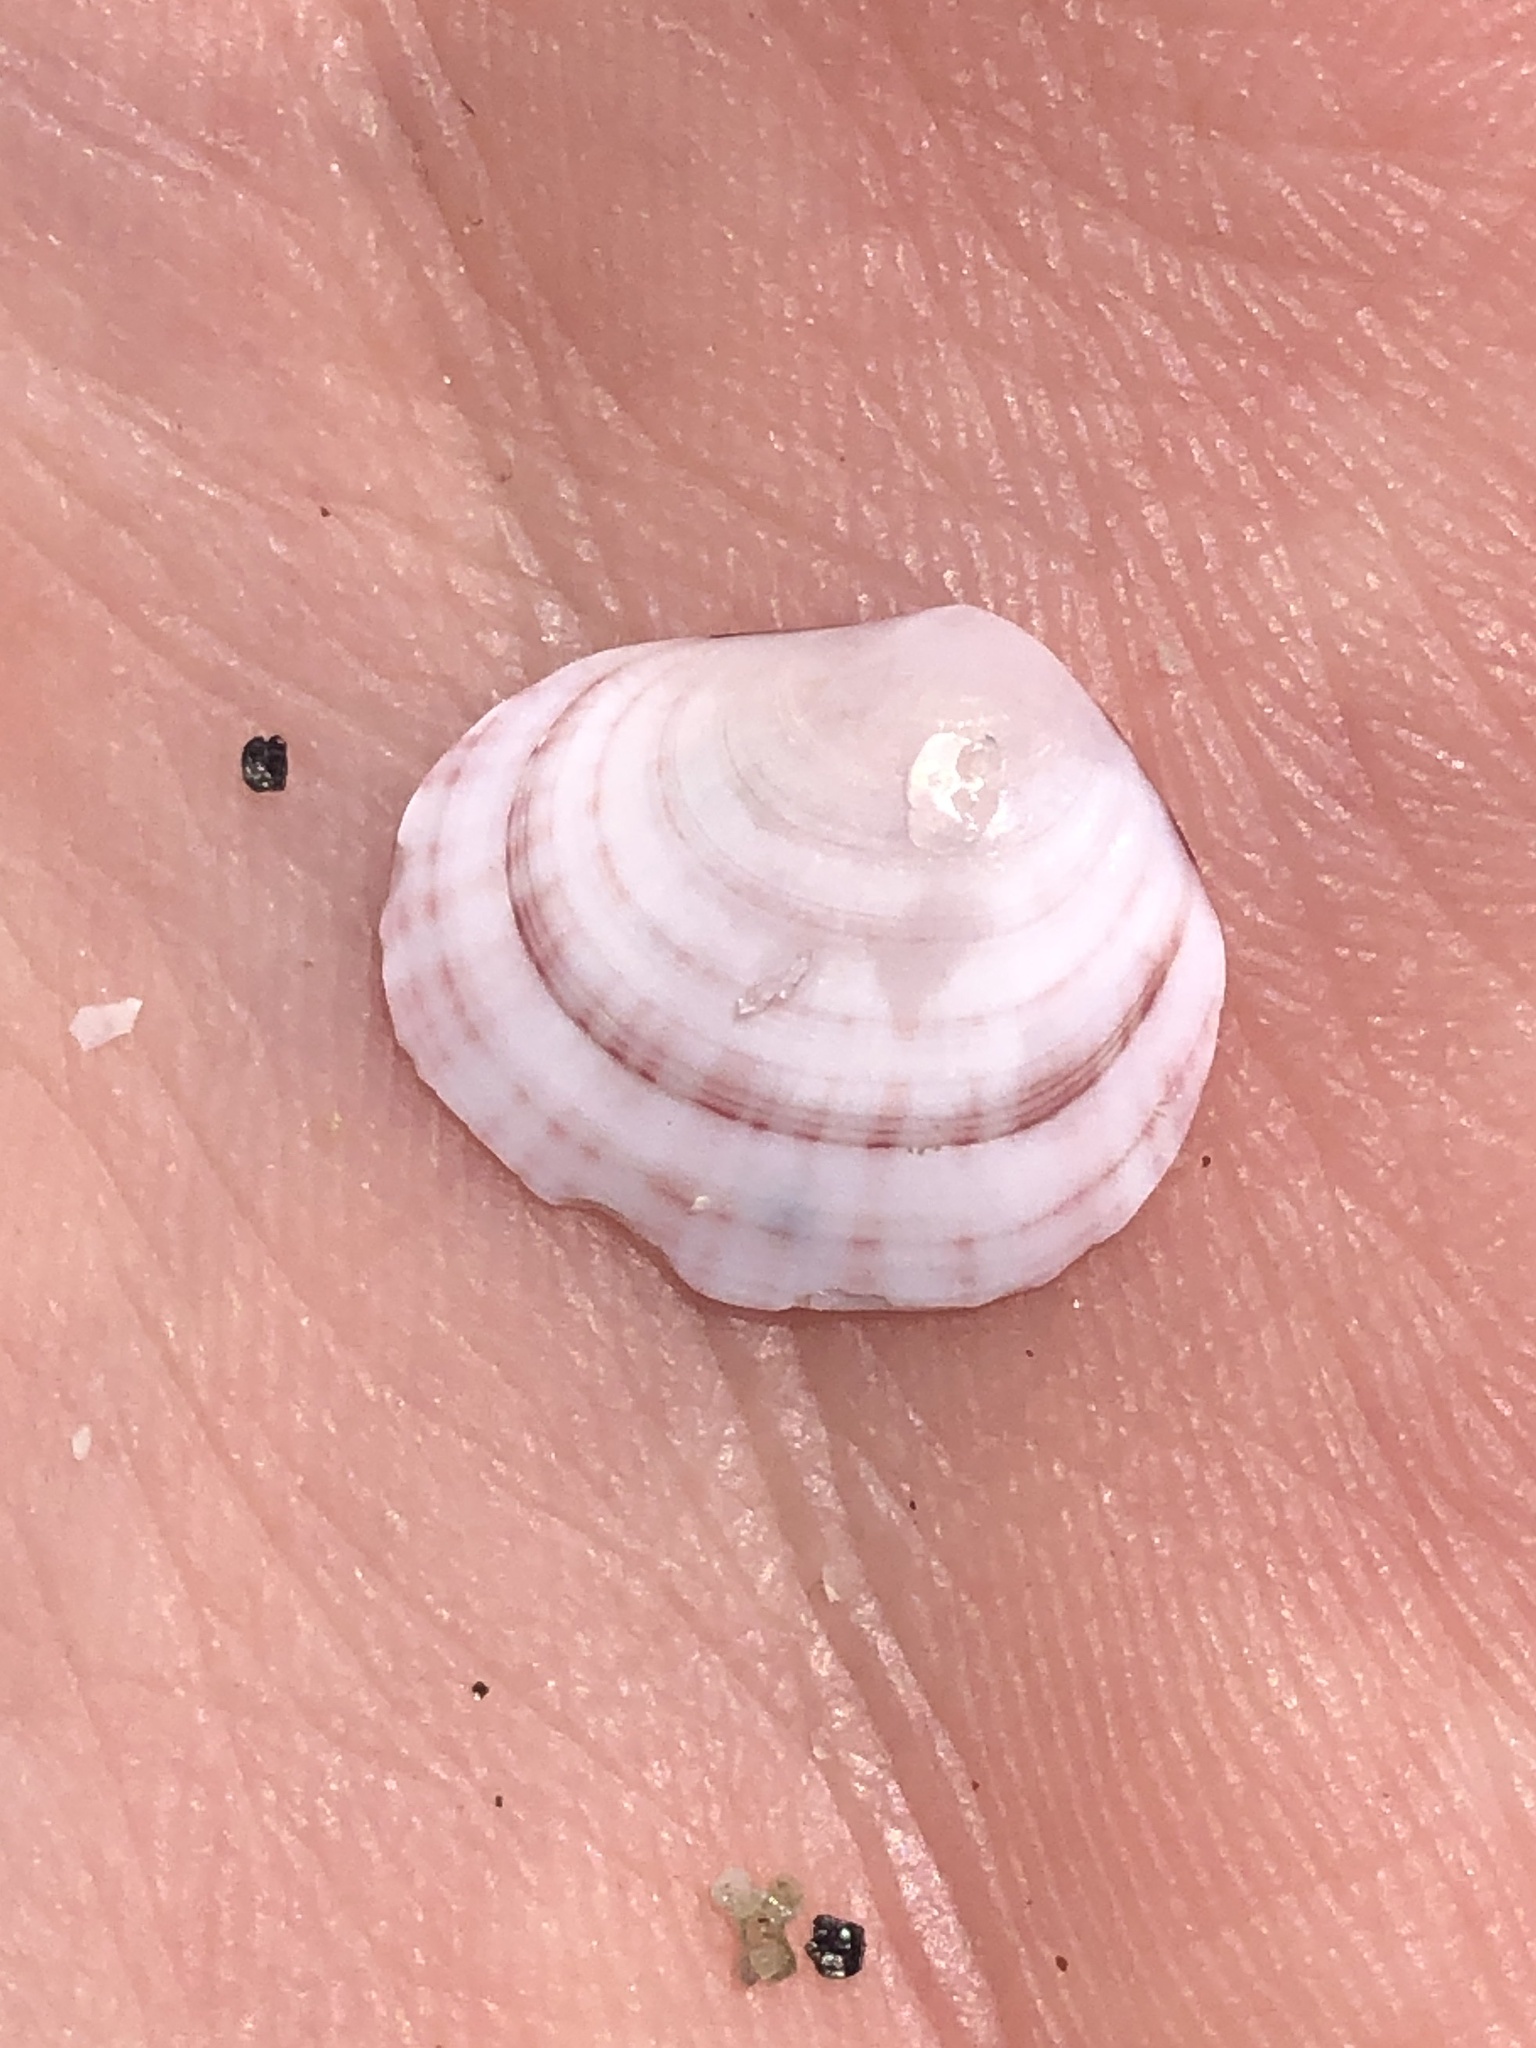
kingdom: Animalia
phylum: Mollusca
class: Bivalvia
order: Cardiida
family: Semelidae
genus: Semele
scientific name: Semele rubropicta
